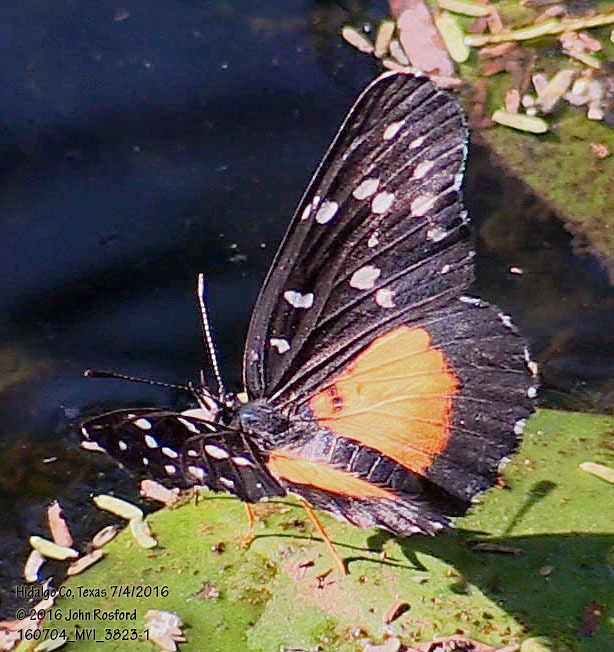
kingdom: Animalia
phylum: Arthropoda
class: Insecta
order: Lepidoptera
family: Nymphalidae
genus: Chlosyne
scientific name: Chlosyne rosita
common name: Rosita patch
